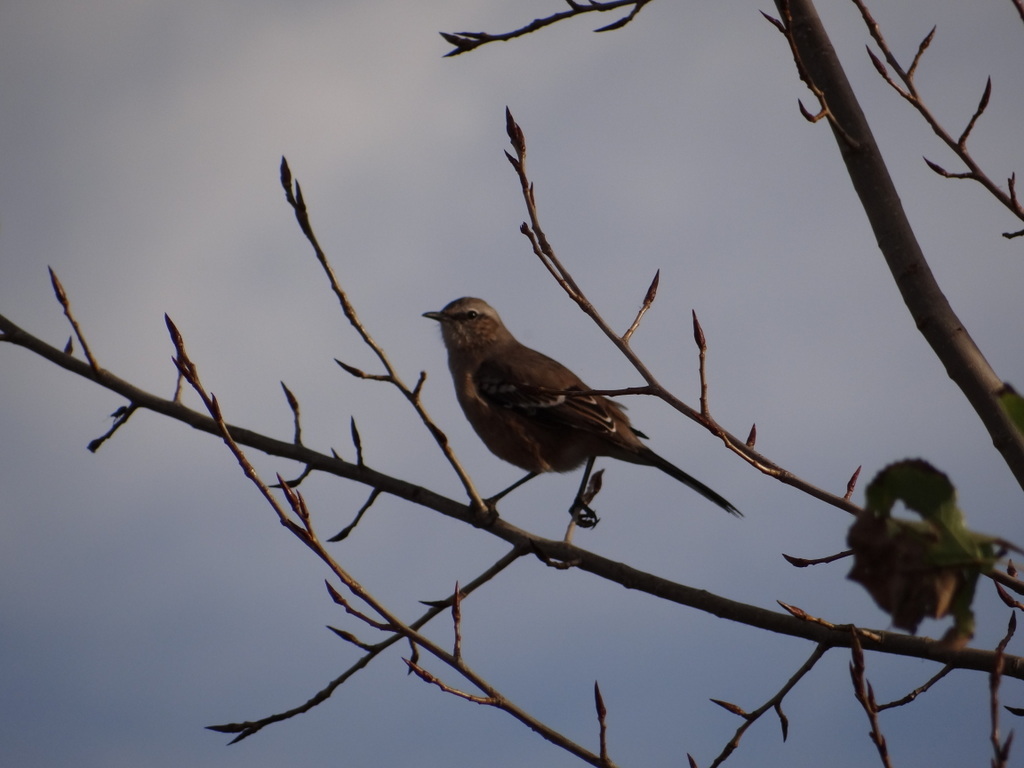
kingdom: Animalia
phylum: Chordata
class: Aves
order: Passeriformes
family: Mimidae
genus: Mimus
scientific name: Mimus patagonicus
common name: Patagonian mockingbird
